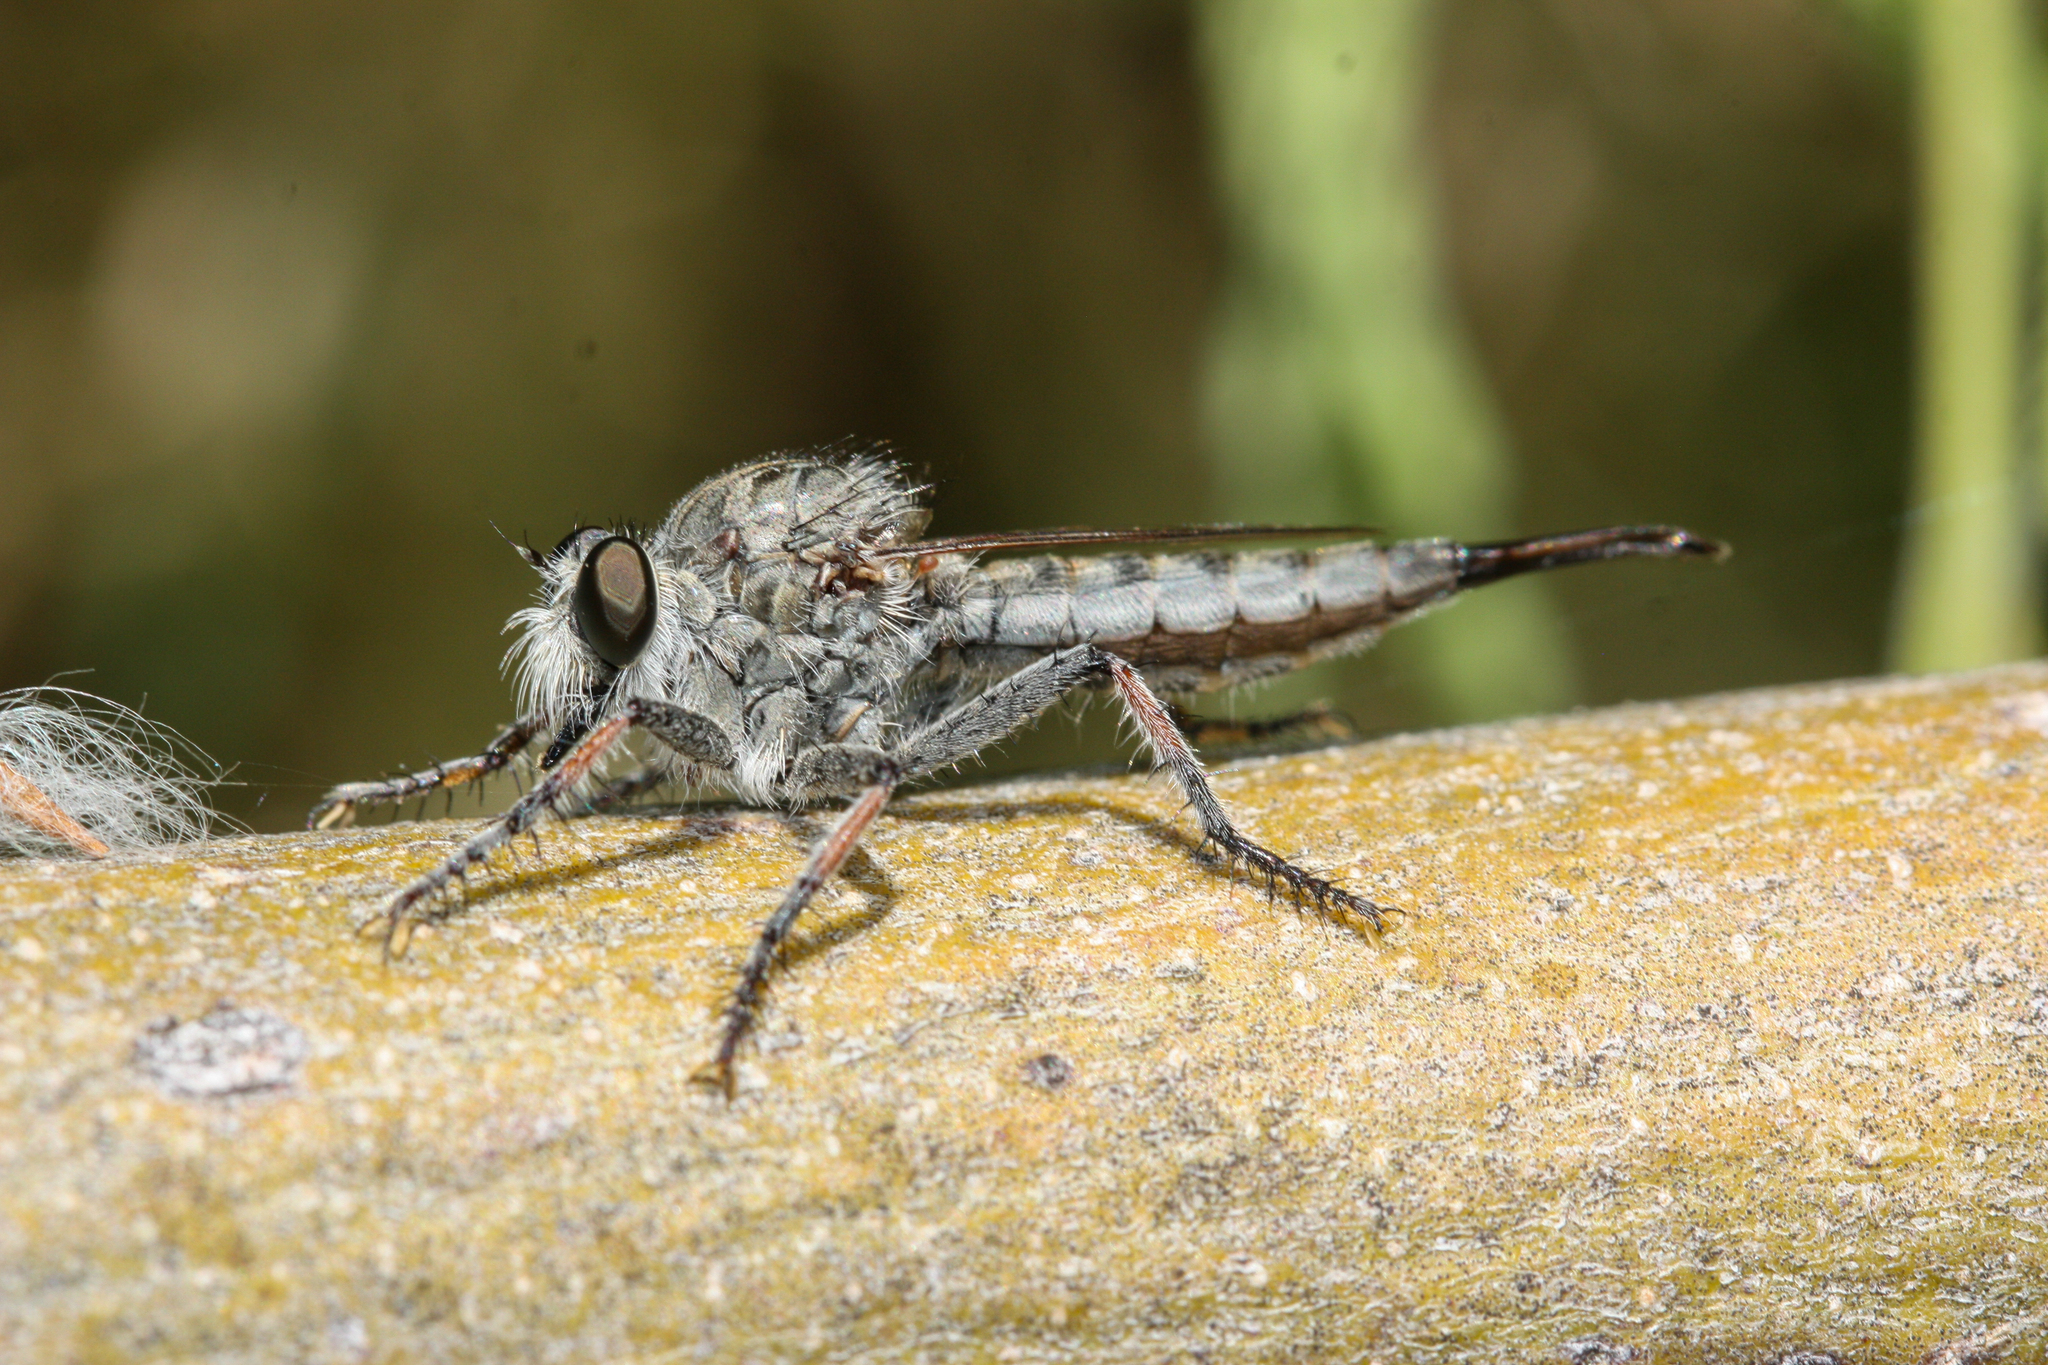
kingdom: Animalia
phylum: Arthropoda
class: Insecta
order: Diptera
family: Asilidae
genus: Efferia
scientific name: Efferia
